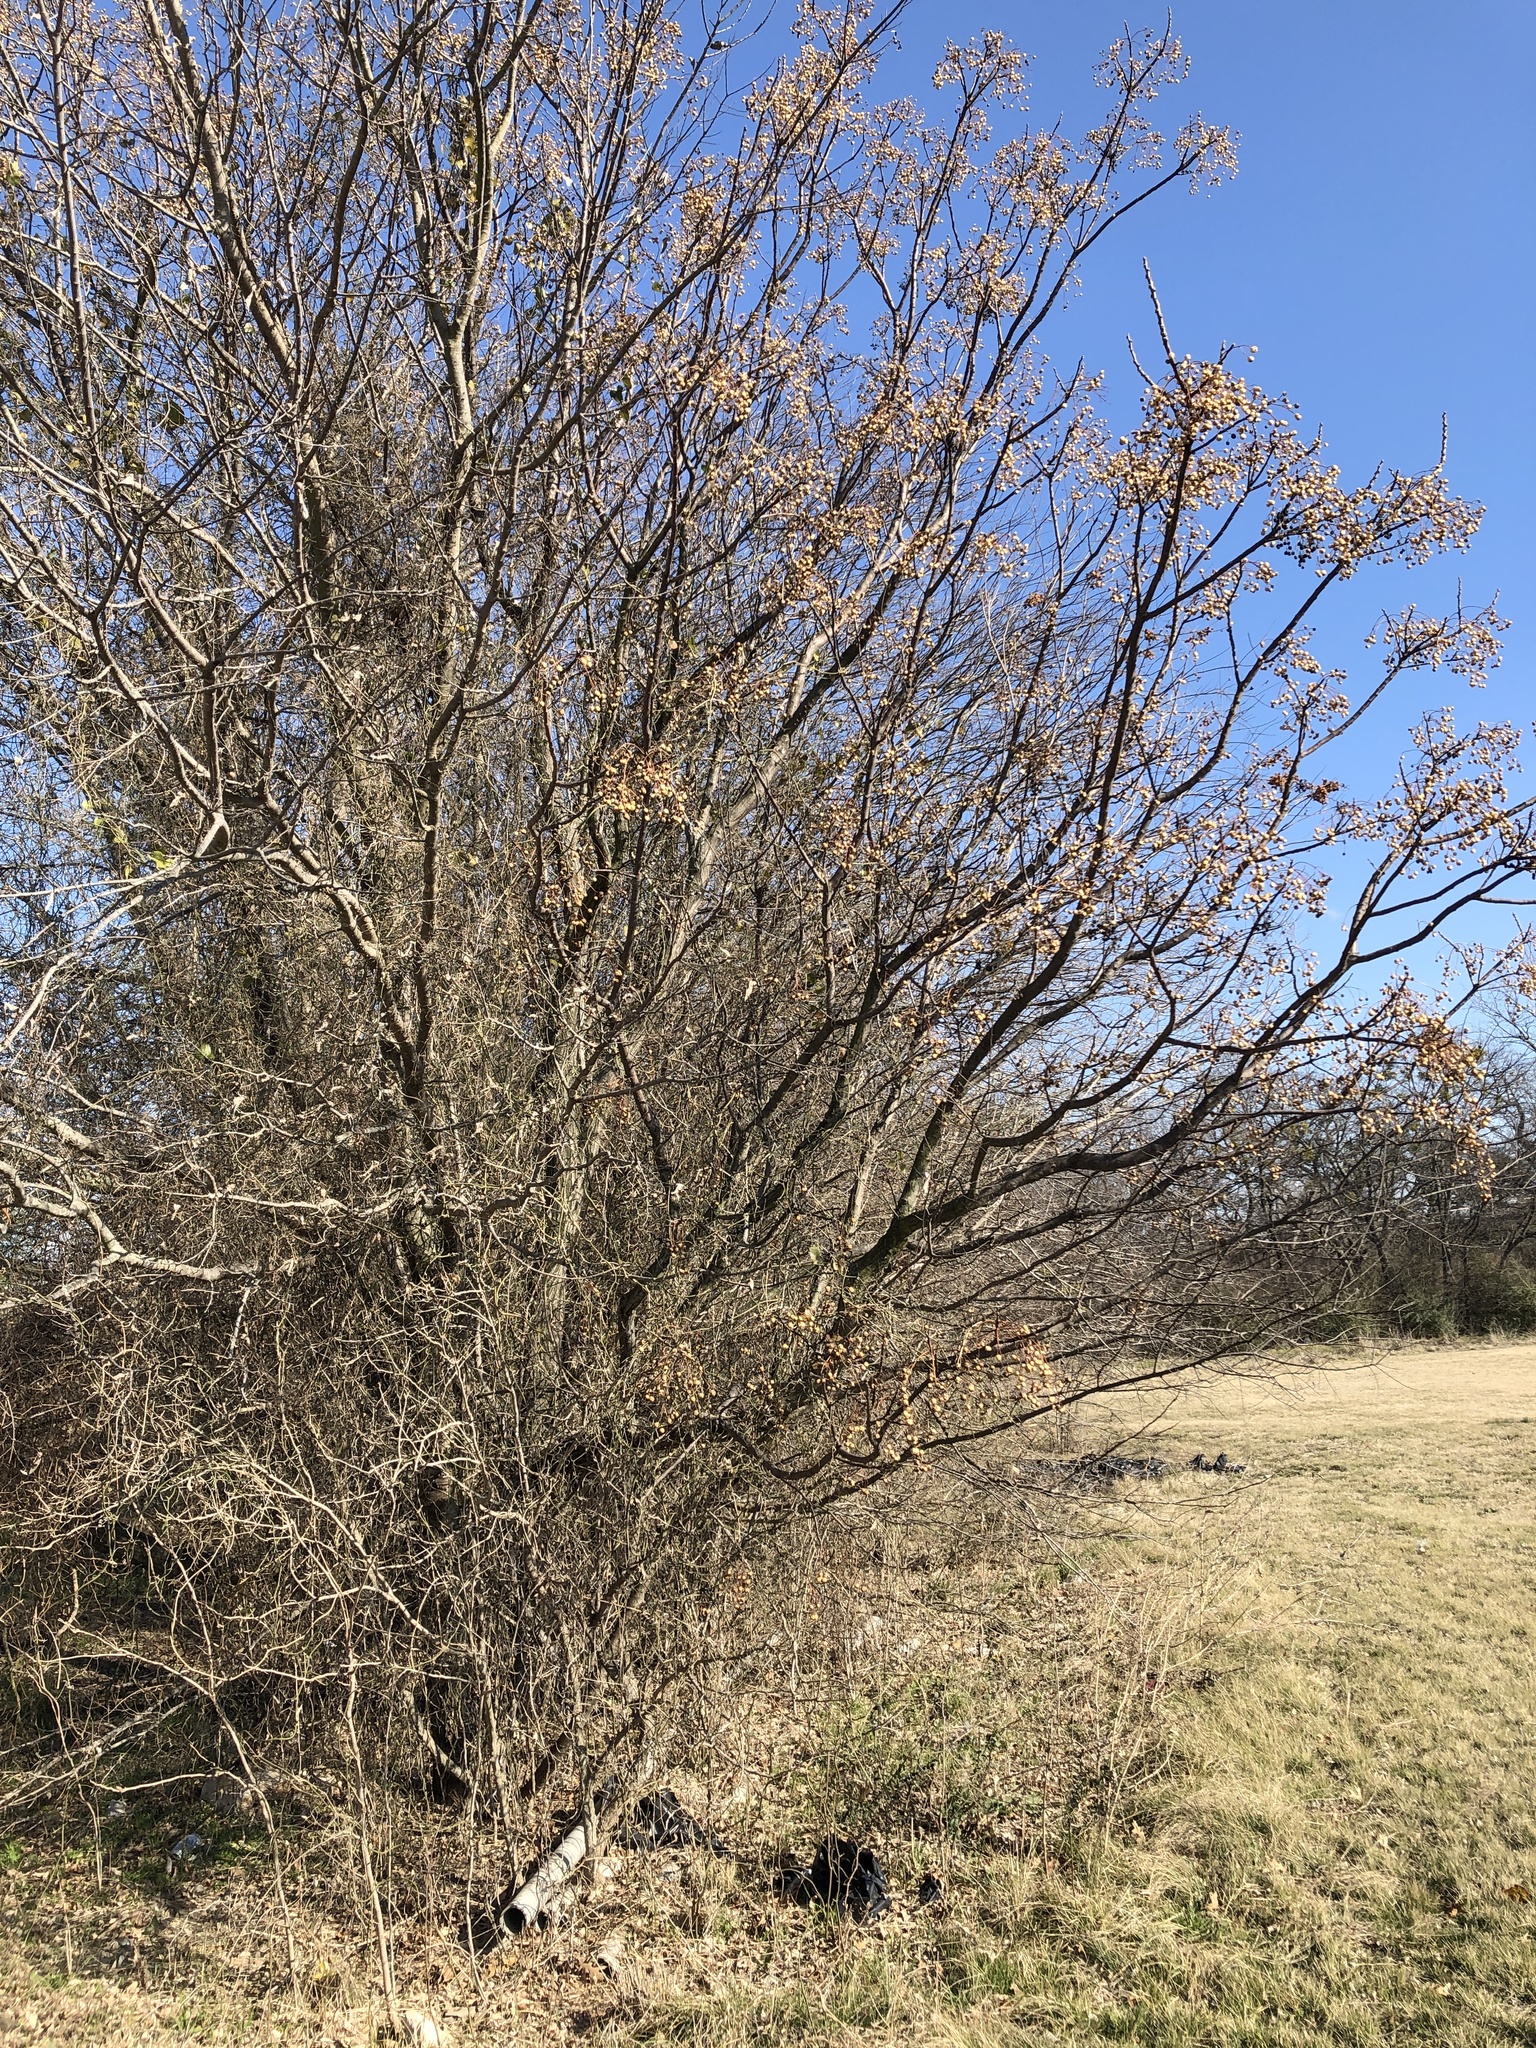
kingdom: Plantae
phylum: Tracheophyta
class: Magnoliopsida
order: Sapindales
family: Meliaceae
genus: Melia
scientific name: Melia azedarach
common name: Chinaberrytree
